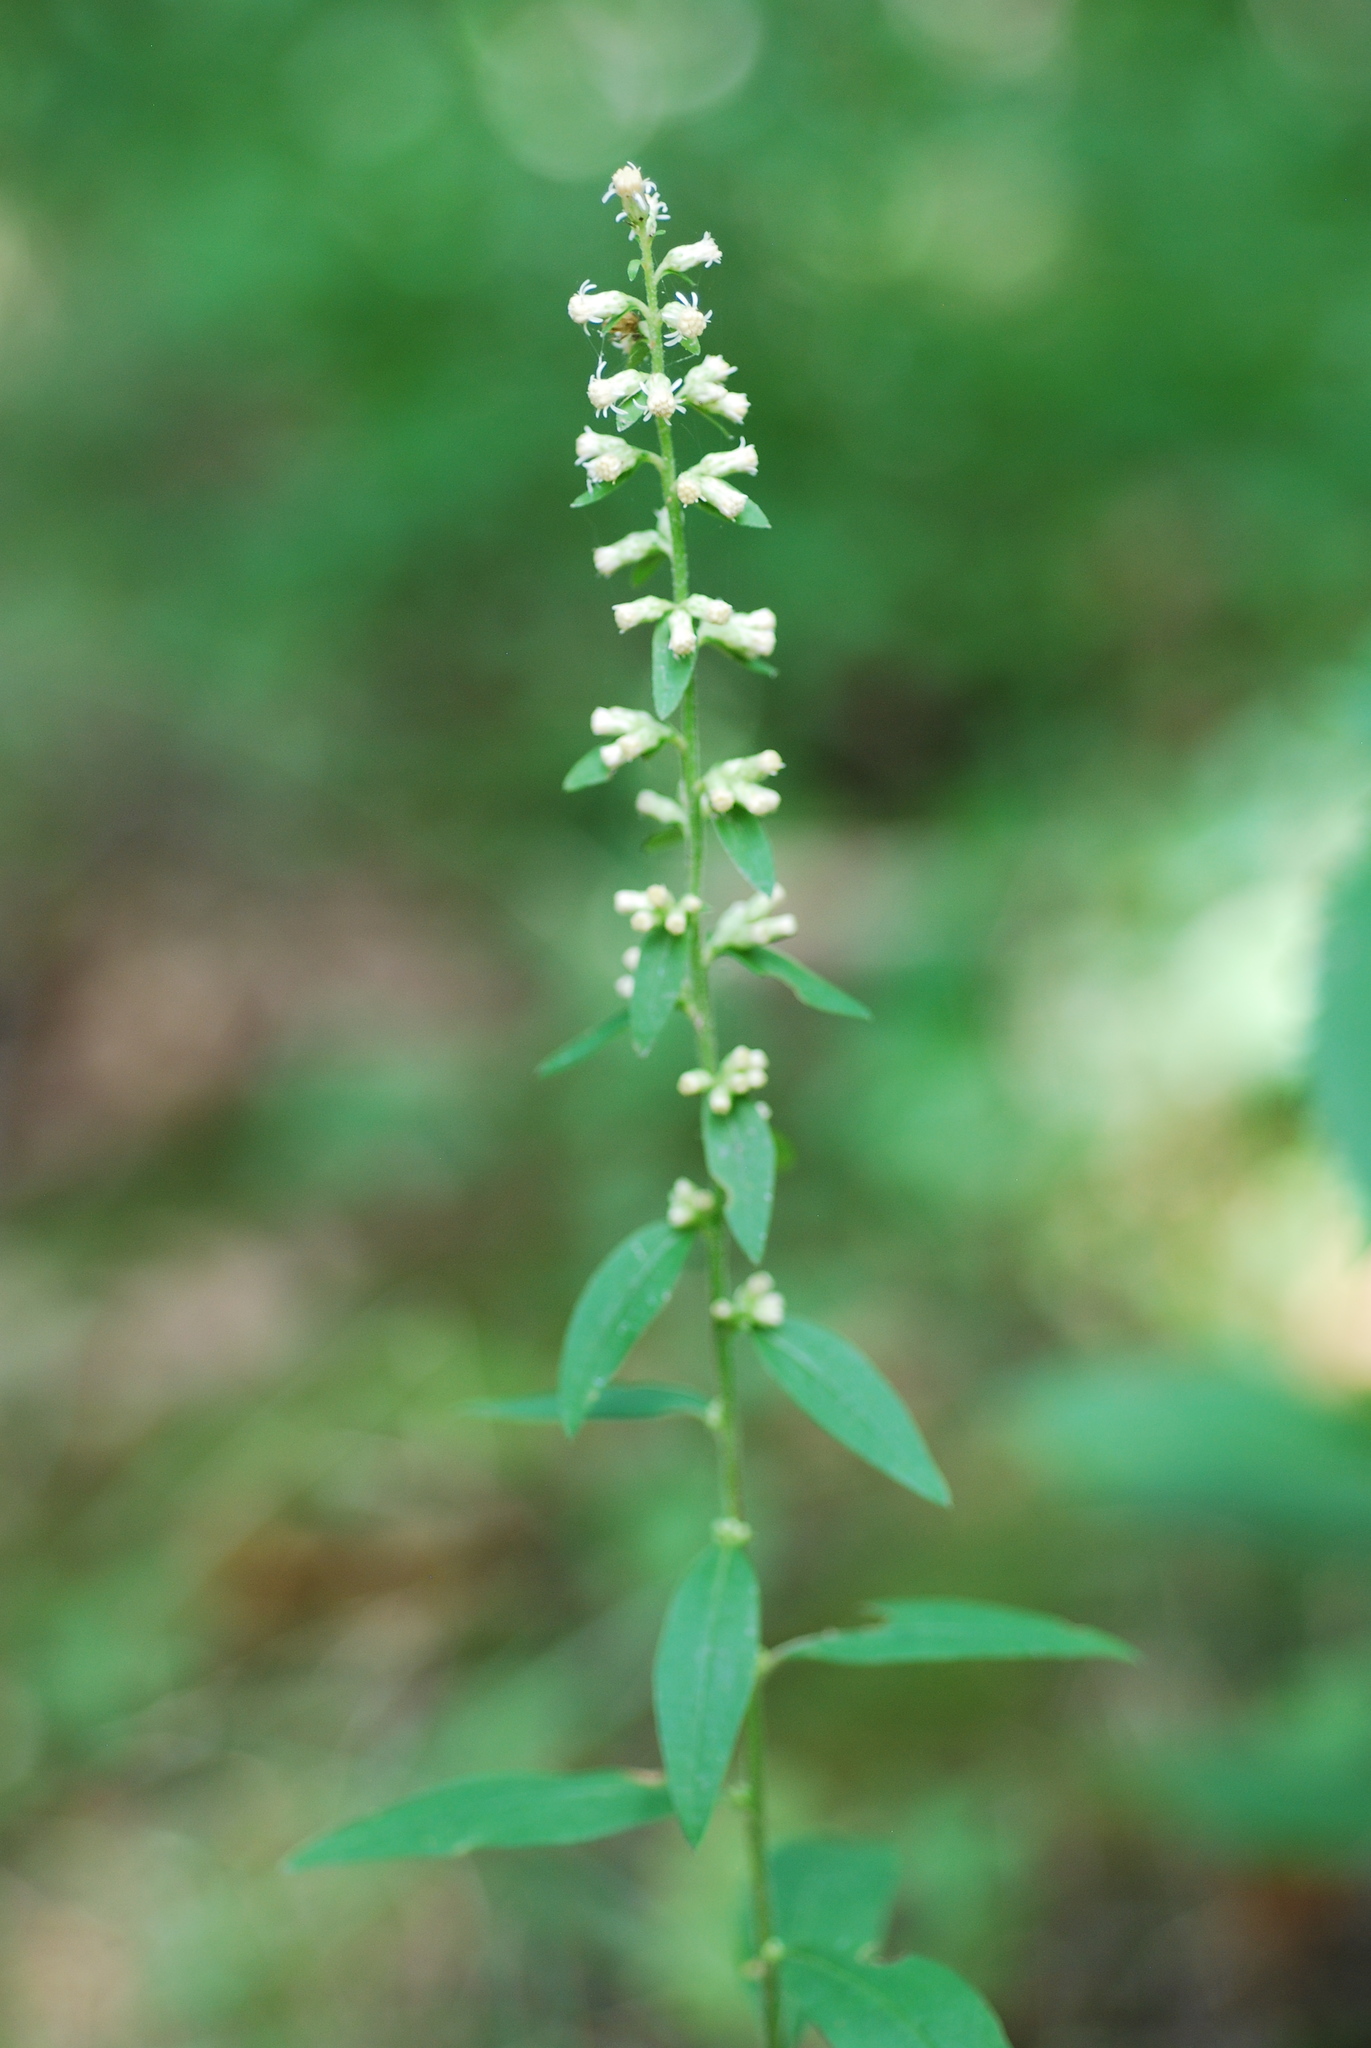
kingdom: Plantae
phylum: Tracheophyta
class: Magnoliopsida
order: Asterales
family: Asteraceae
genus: Solidago
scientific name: Solidago bicolor
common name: Silverrod
